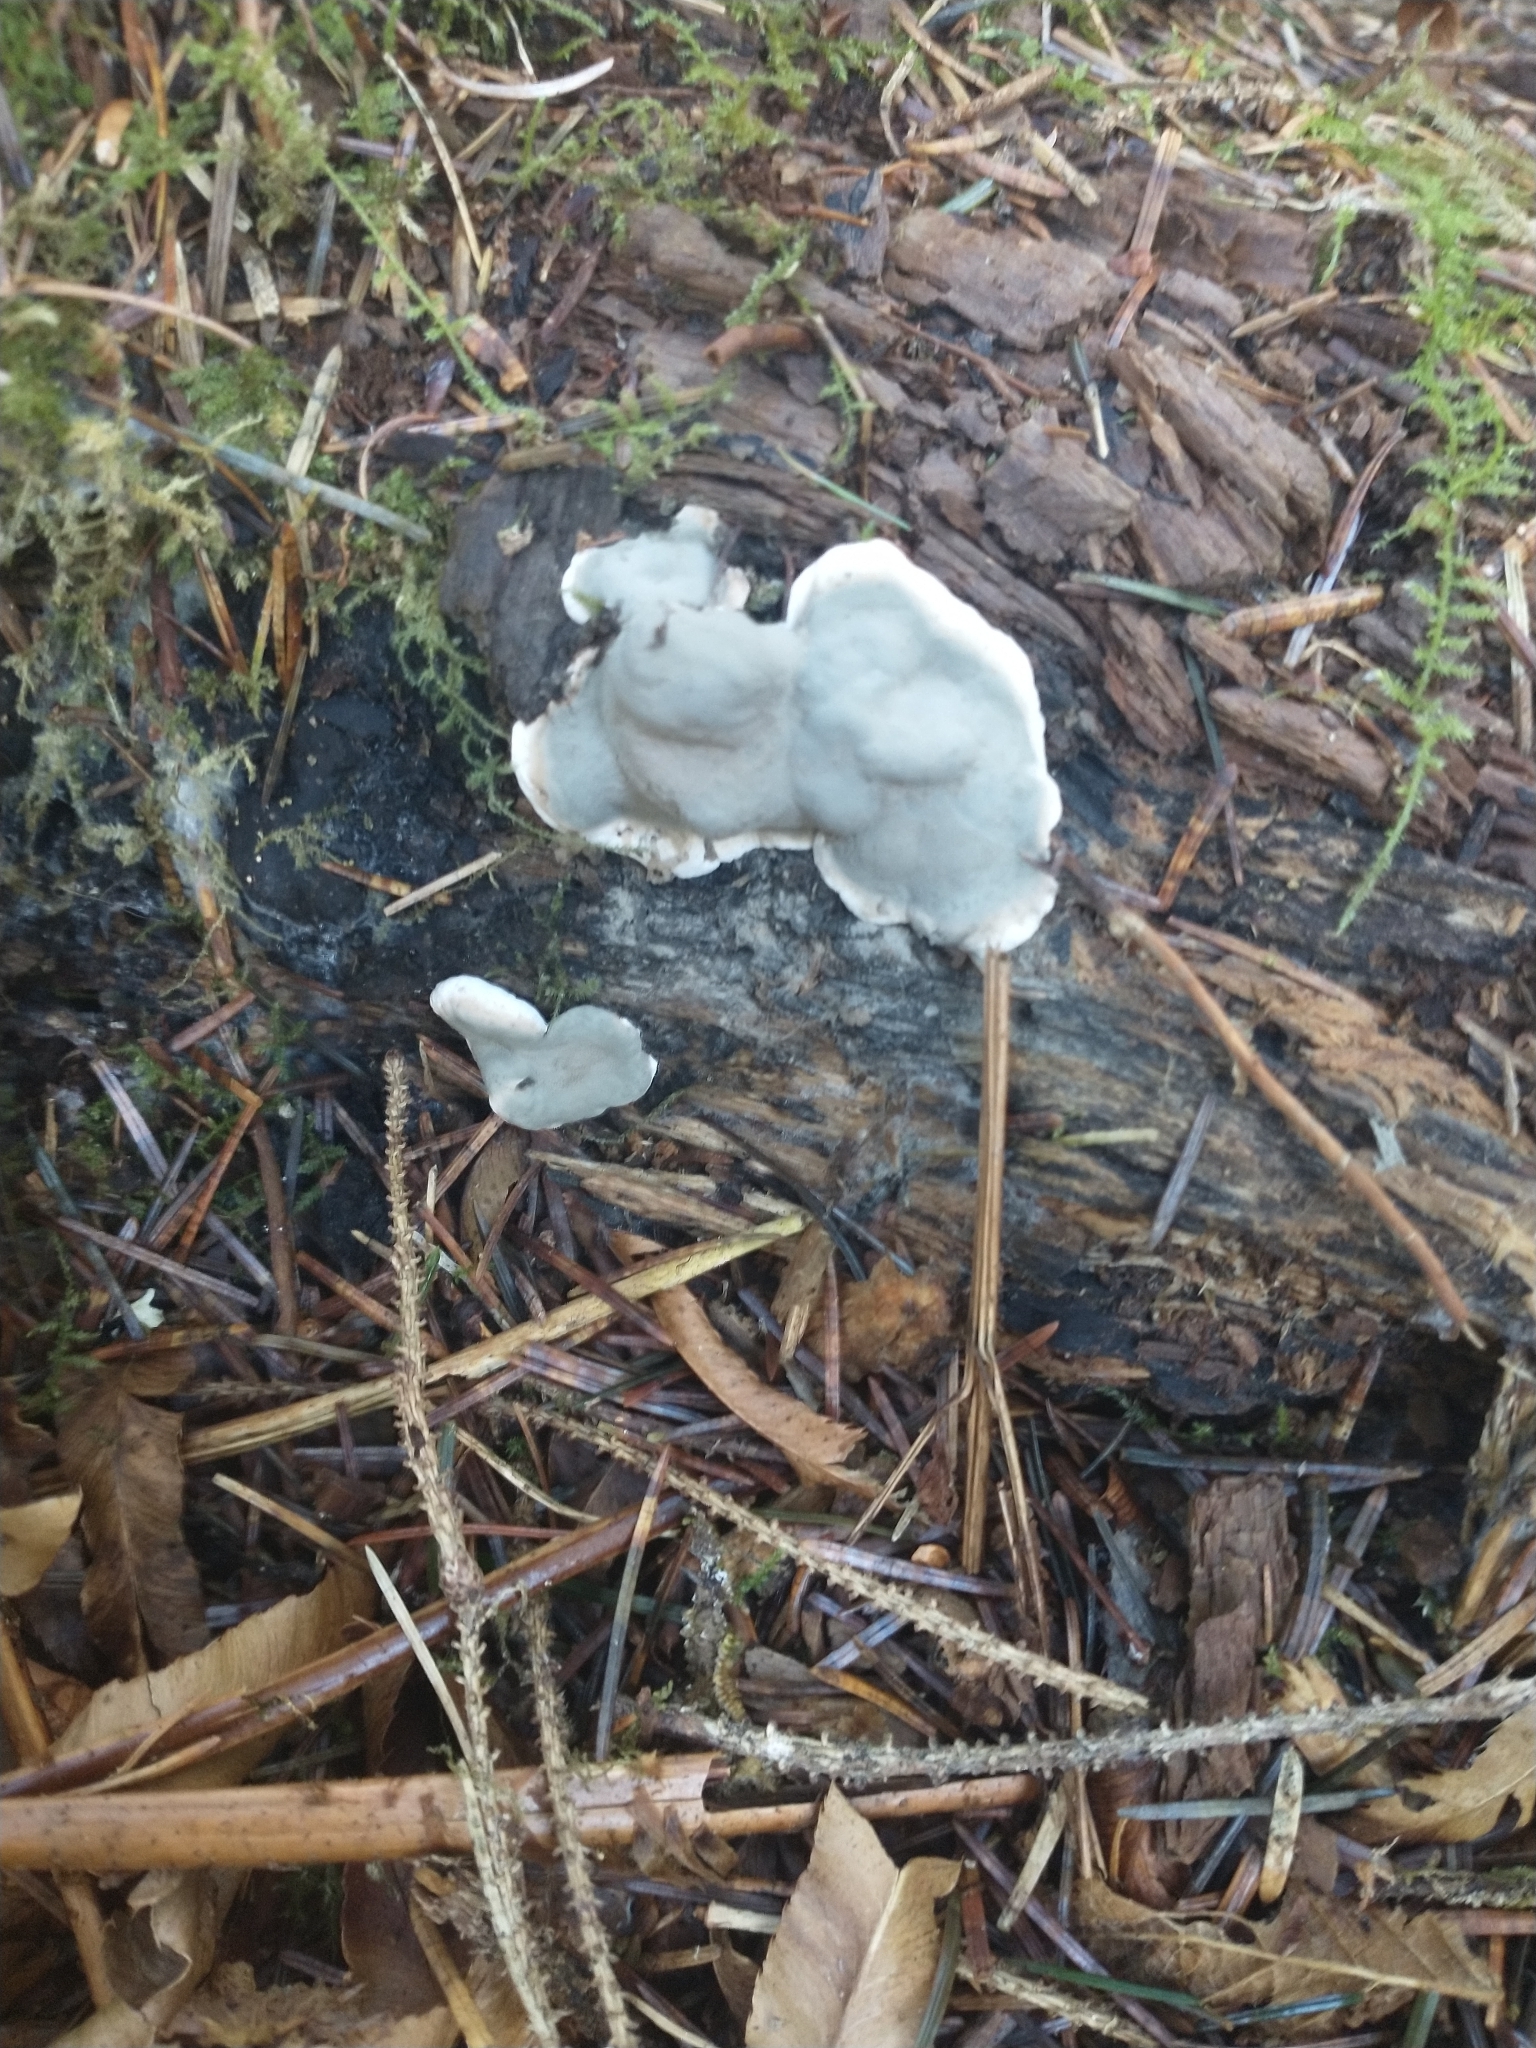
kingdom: Fungi
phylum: Ascomycota
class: Sordariomycetes
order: Xylariales
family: Xylariaceae
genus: Kretzschmaria
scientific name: Kretzschmaria deusta
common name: Brittle cinder
